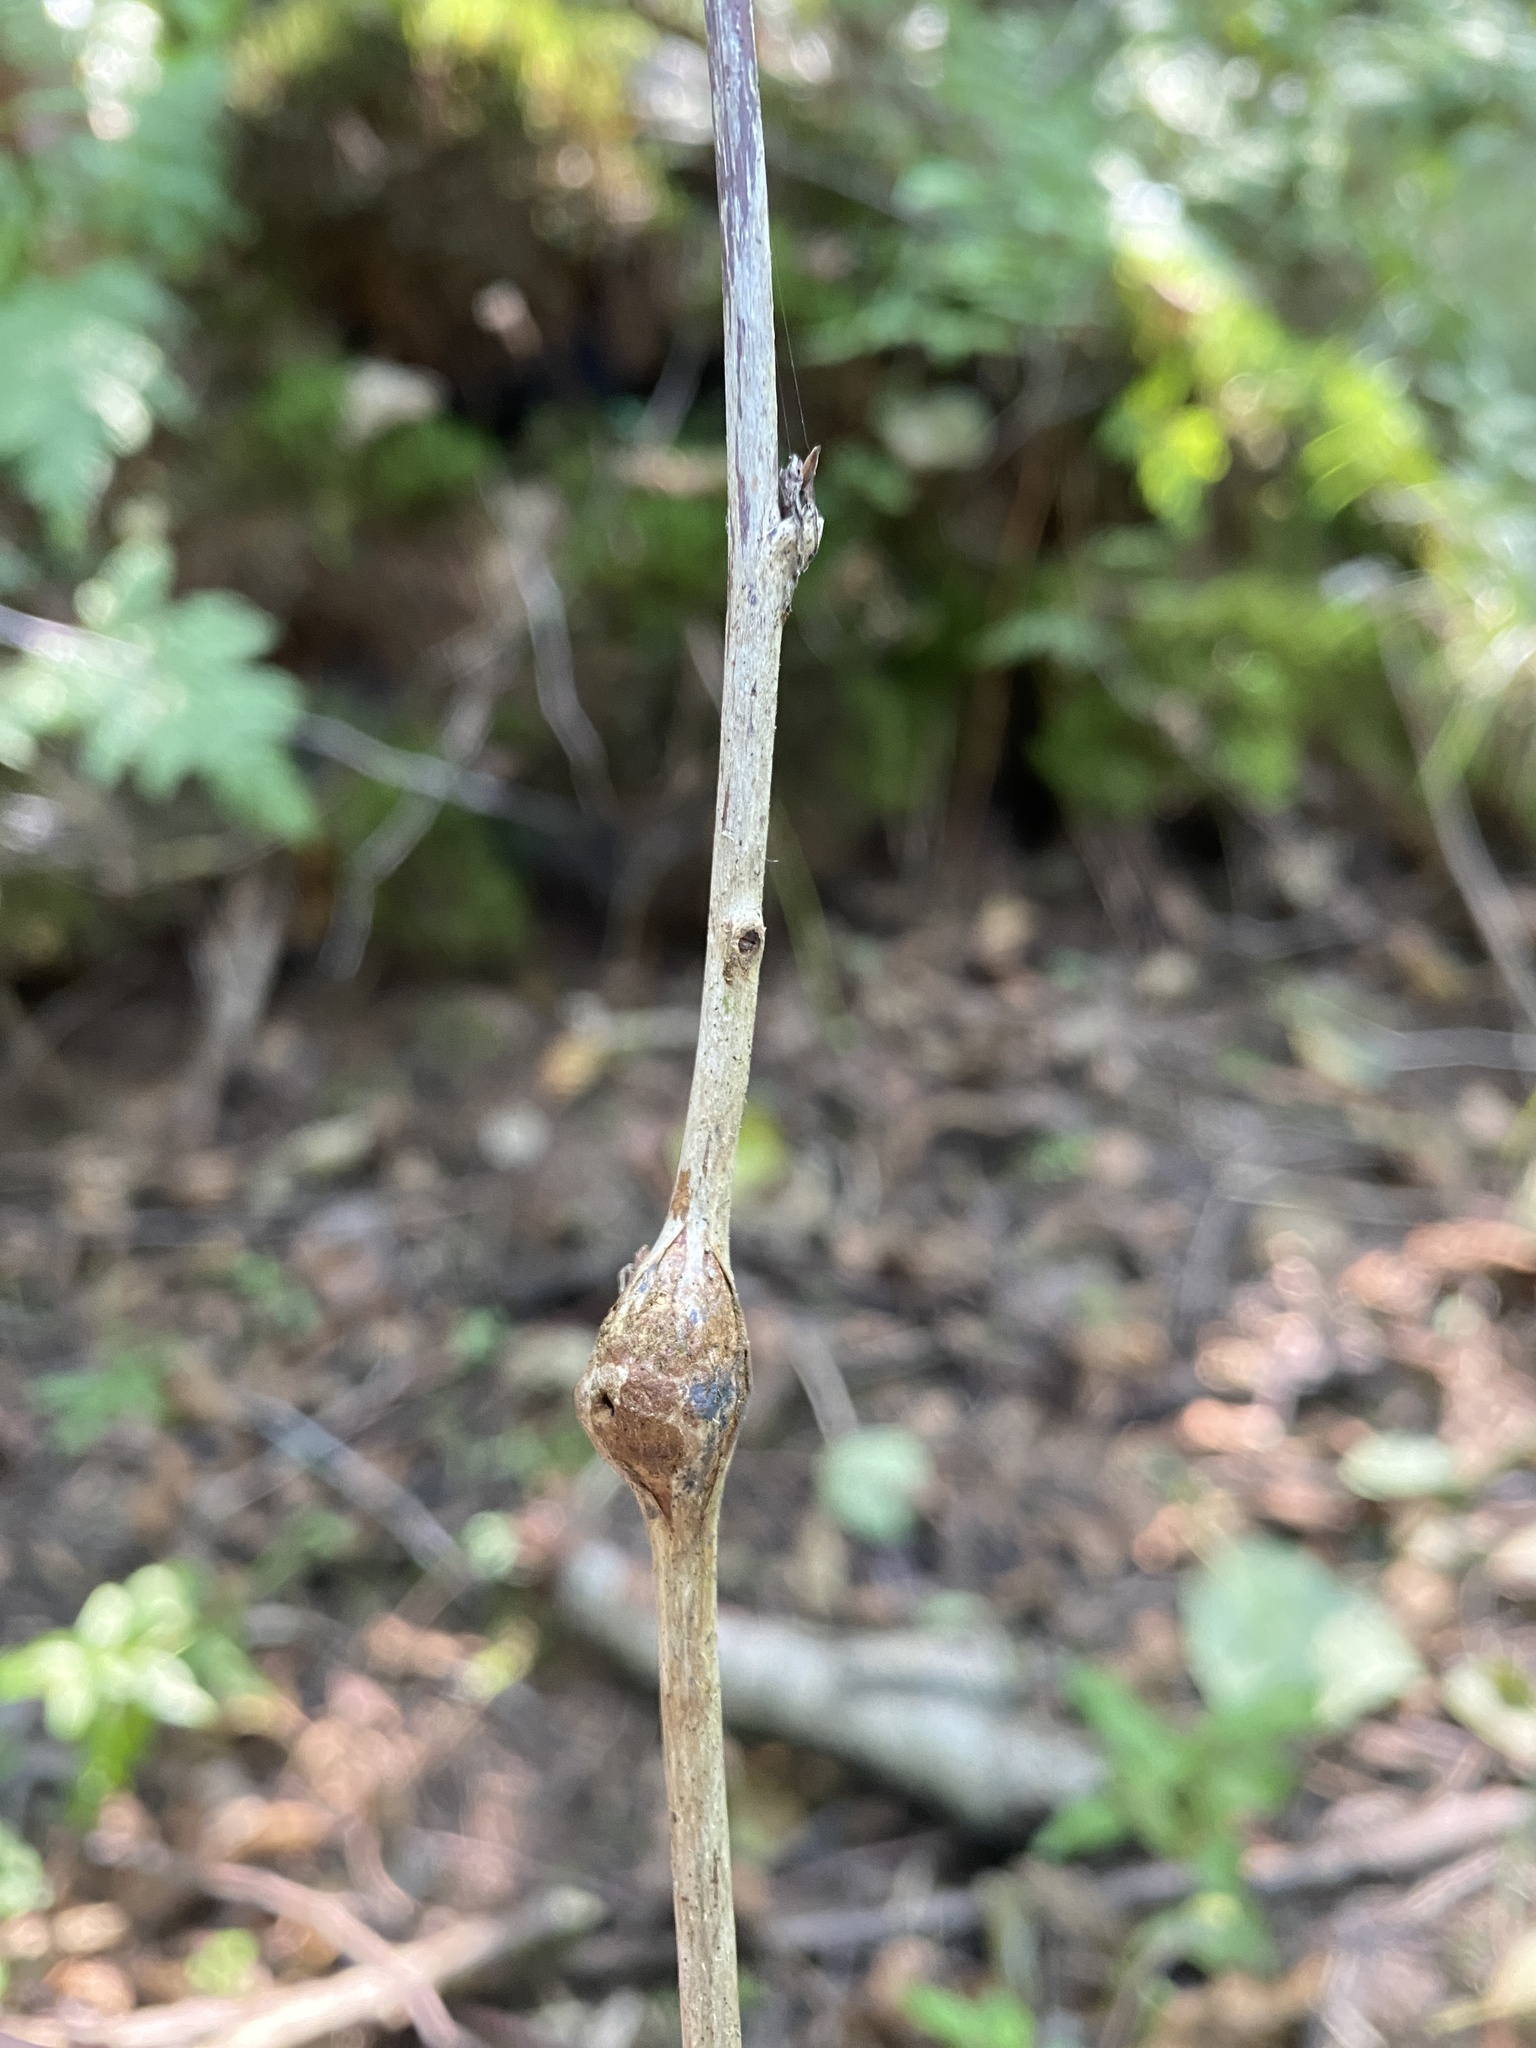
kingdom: Animalia
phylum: Arthropoda
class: Insecta
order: Diptera
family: Cecidomyiidae
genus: Lasioptera
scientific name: Lasioptera rubi
